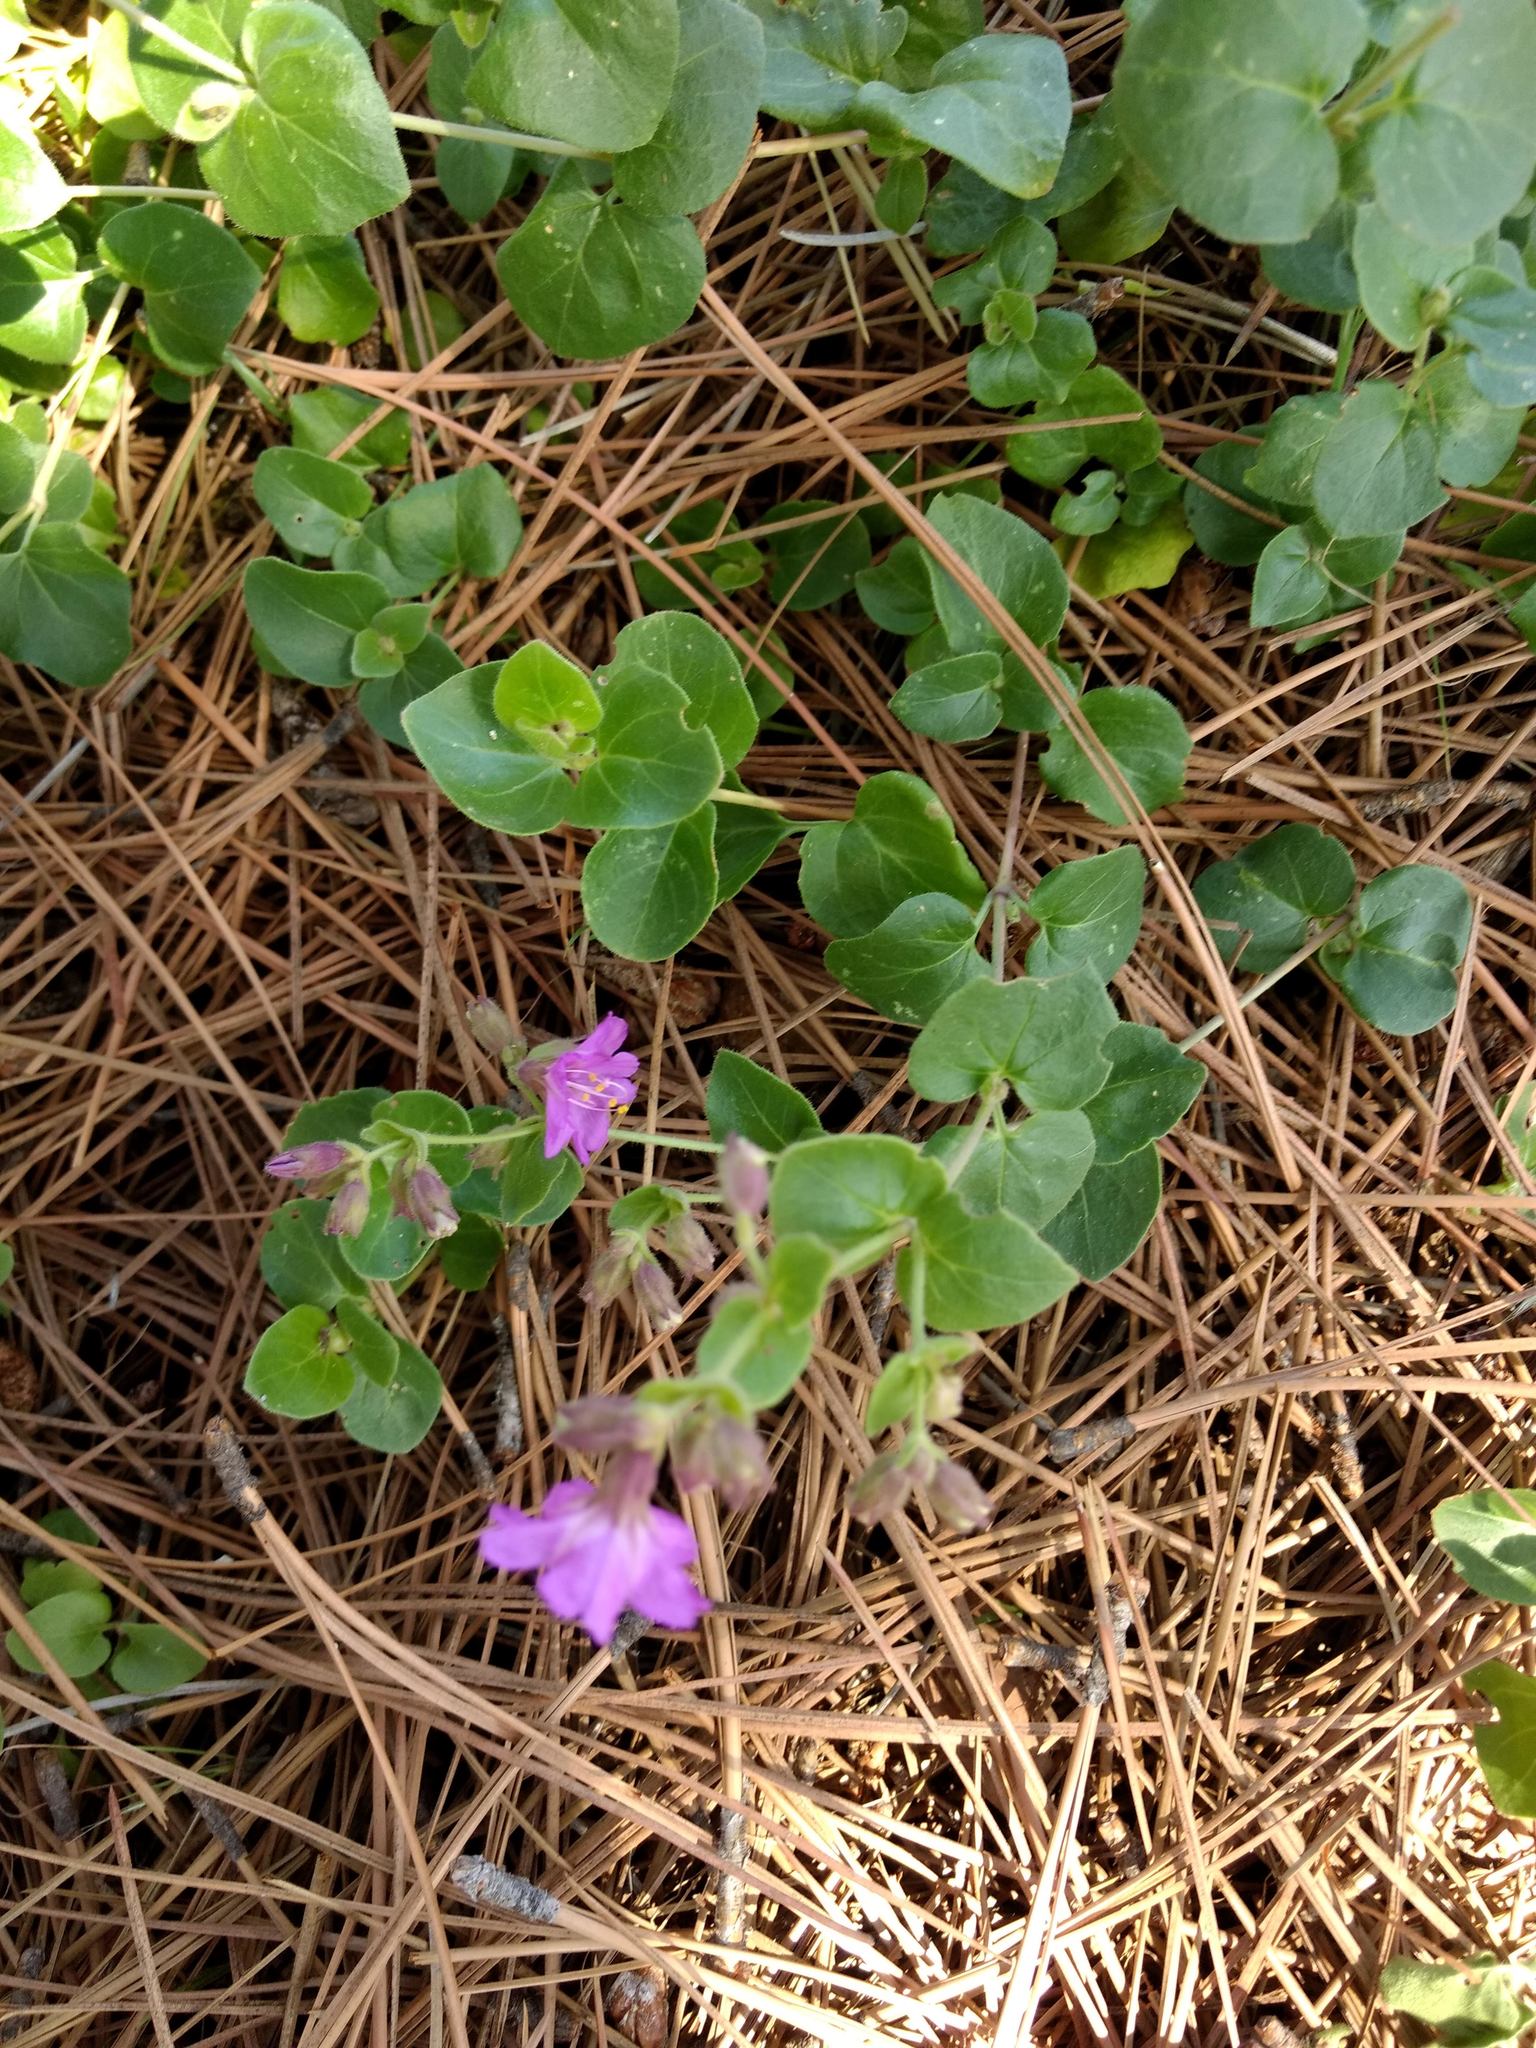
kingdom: Plantae
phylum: Tracheophyta
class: Magnoliopsida
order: Caryophyllales
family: Nyctaginaceae
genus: Mirabilis
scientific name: Mirabilis laevis
